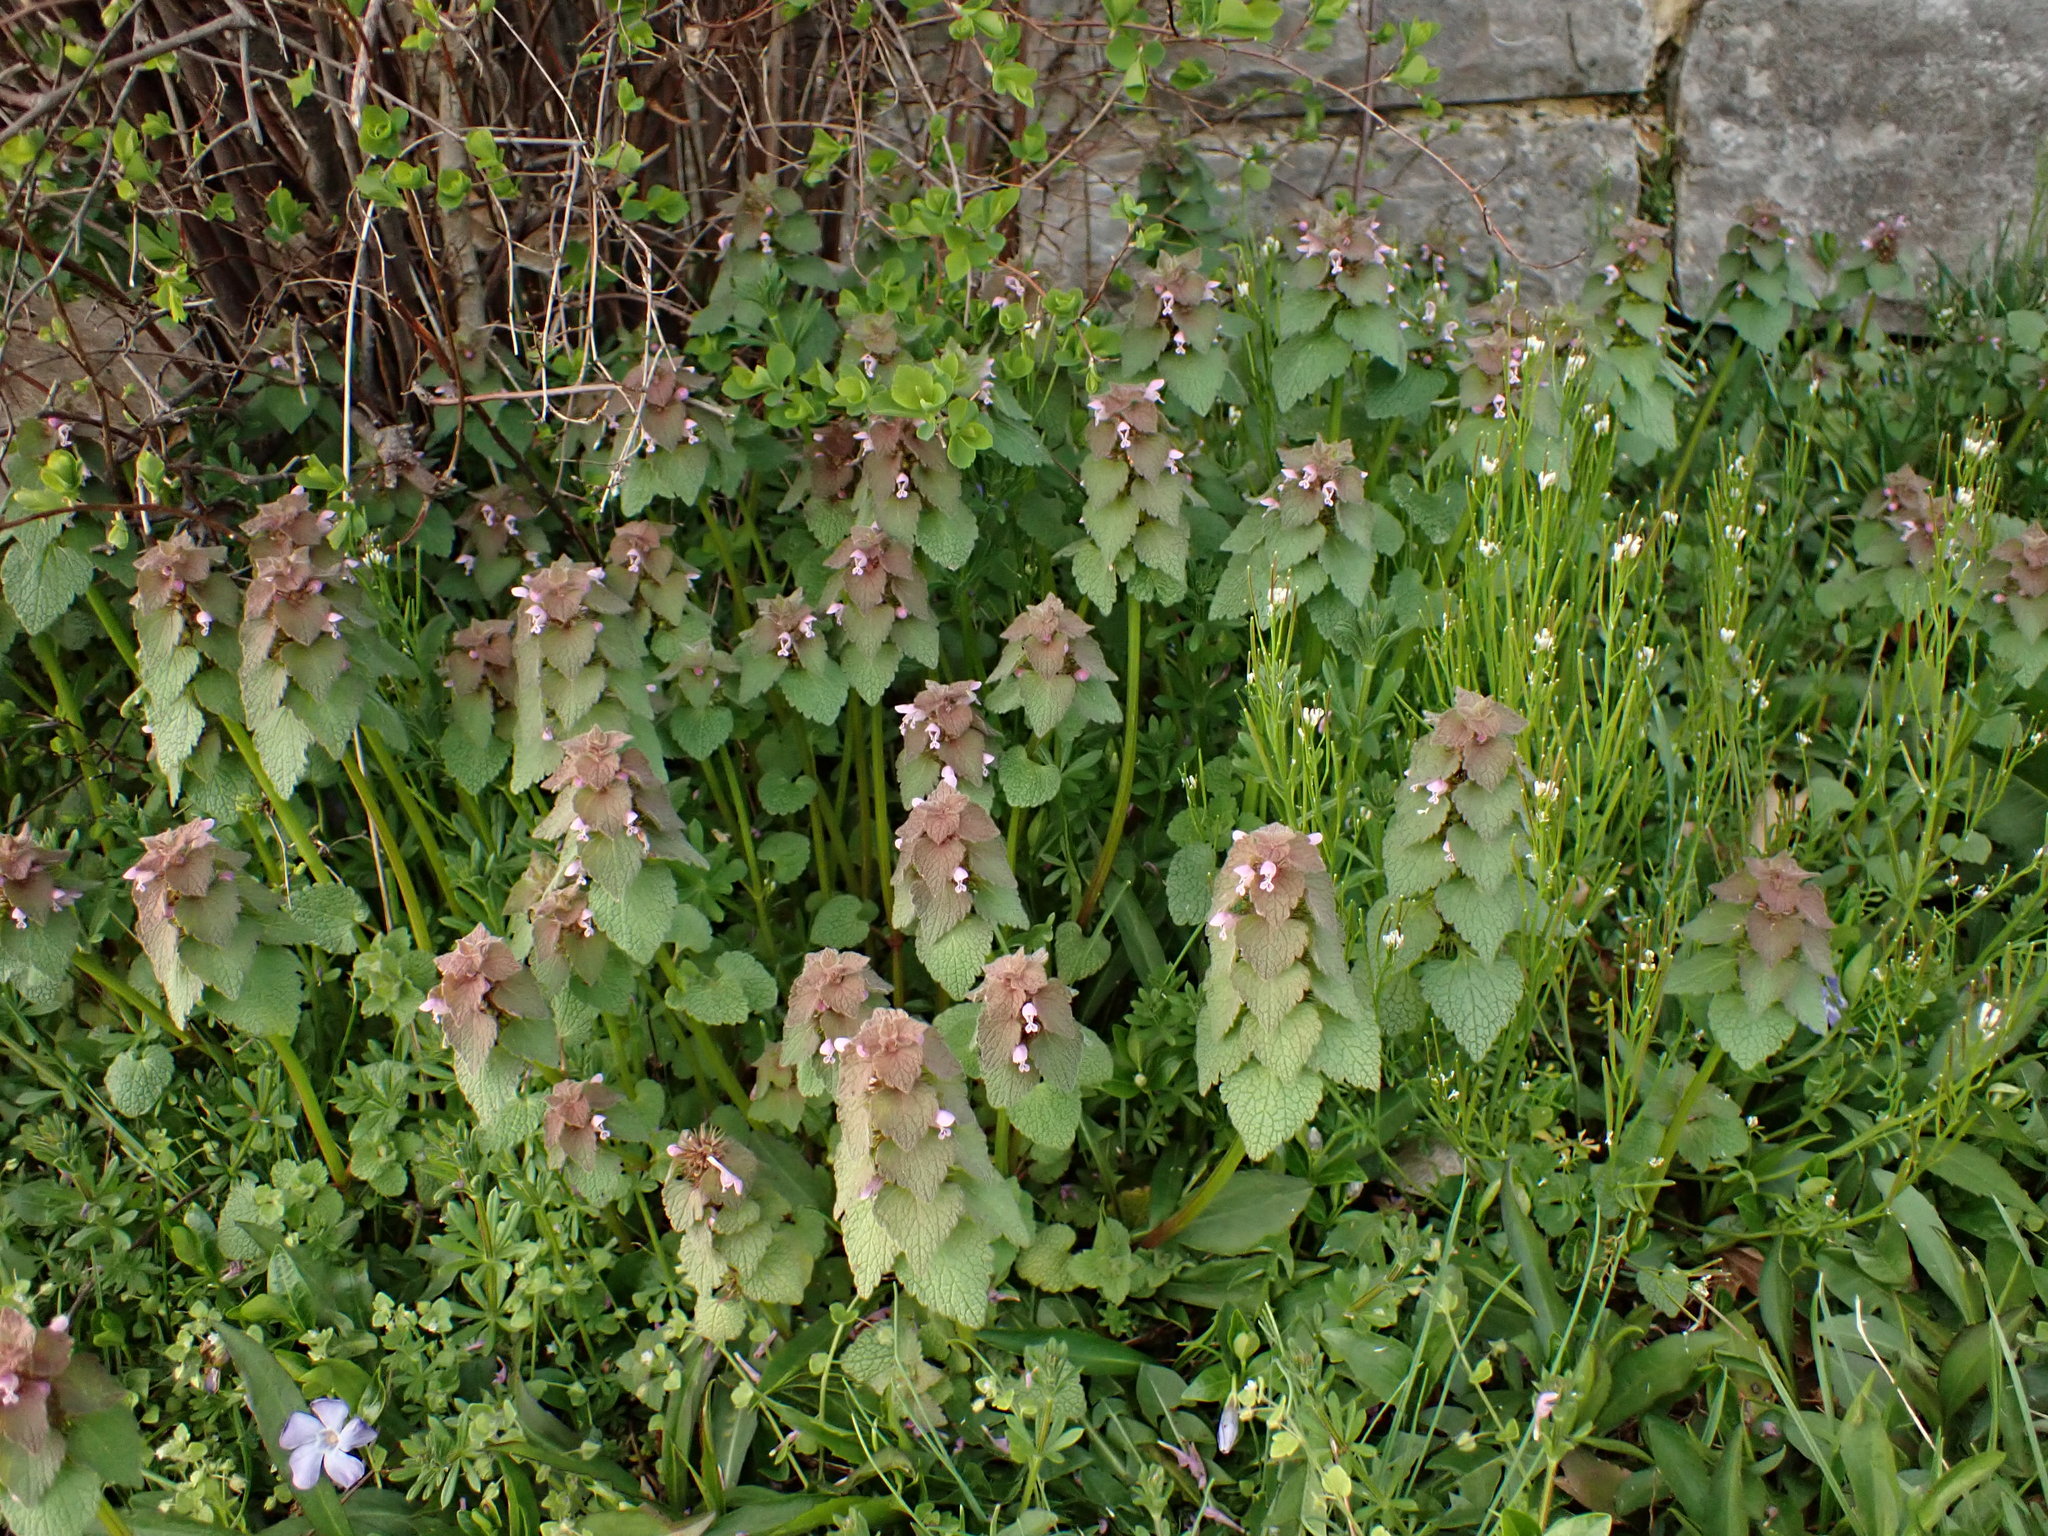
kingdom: Plantae
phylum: Tracheophyta
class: Magnoliopsida
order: Lamiales
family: Lamiaceae
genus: Lamium
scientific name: Lamium purpureum
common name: Red dead-nettle
